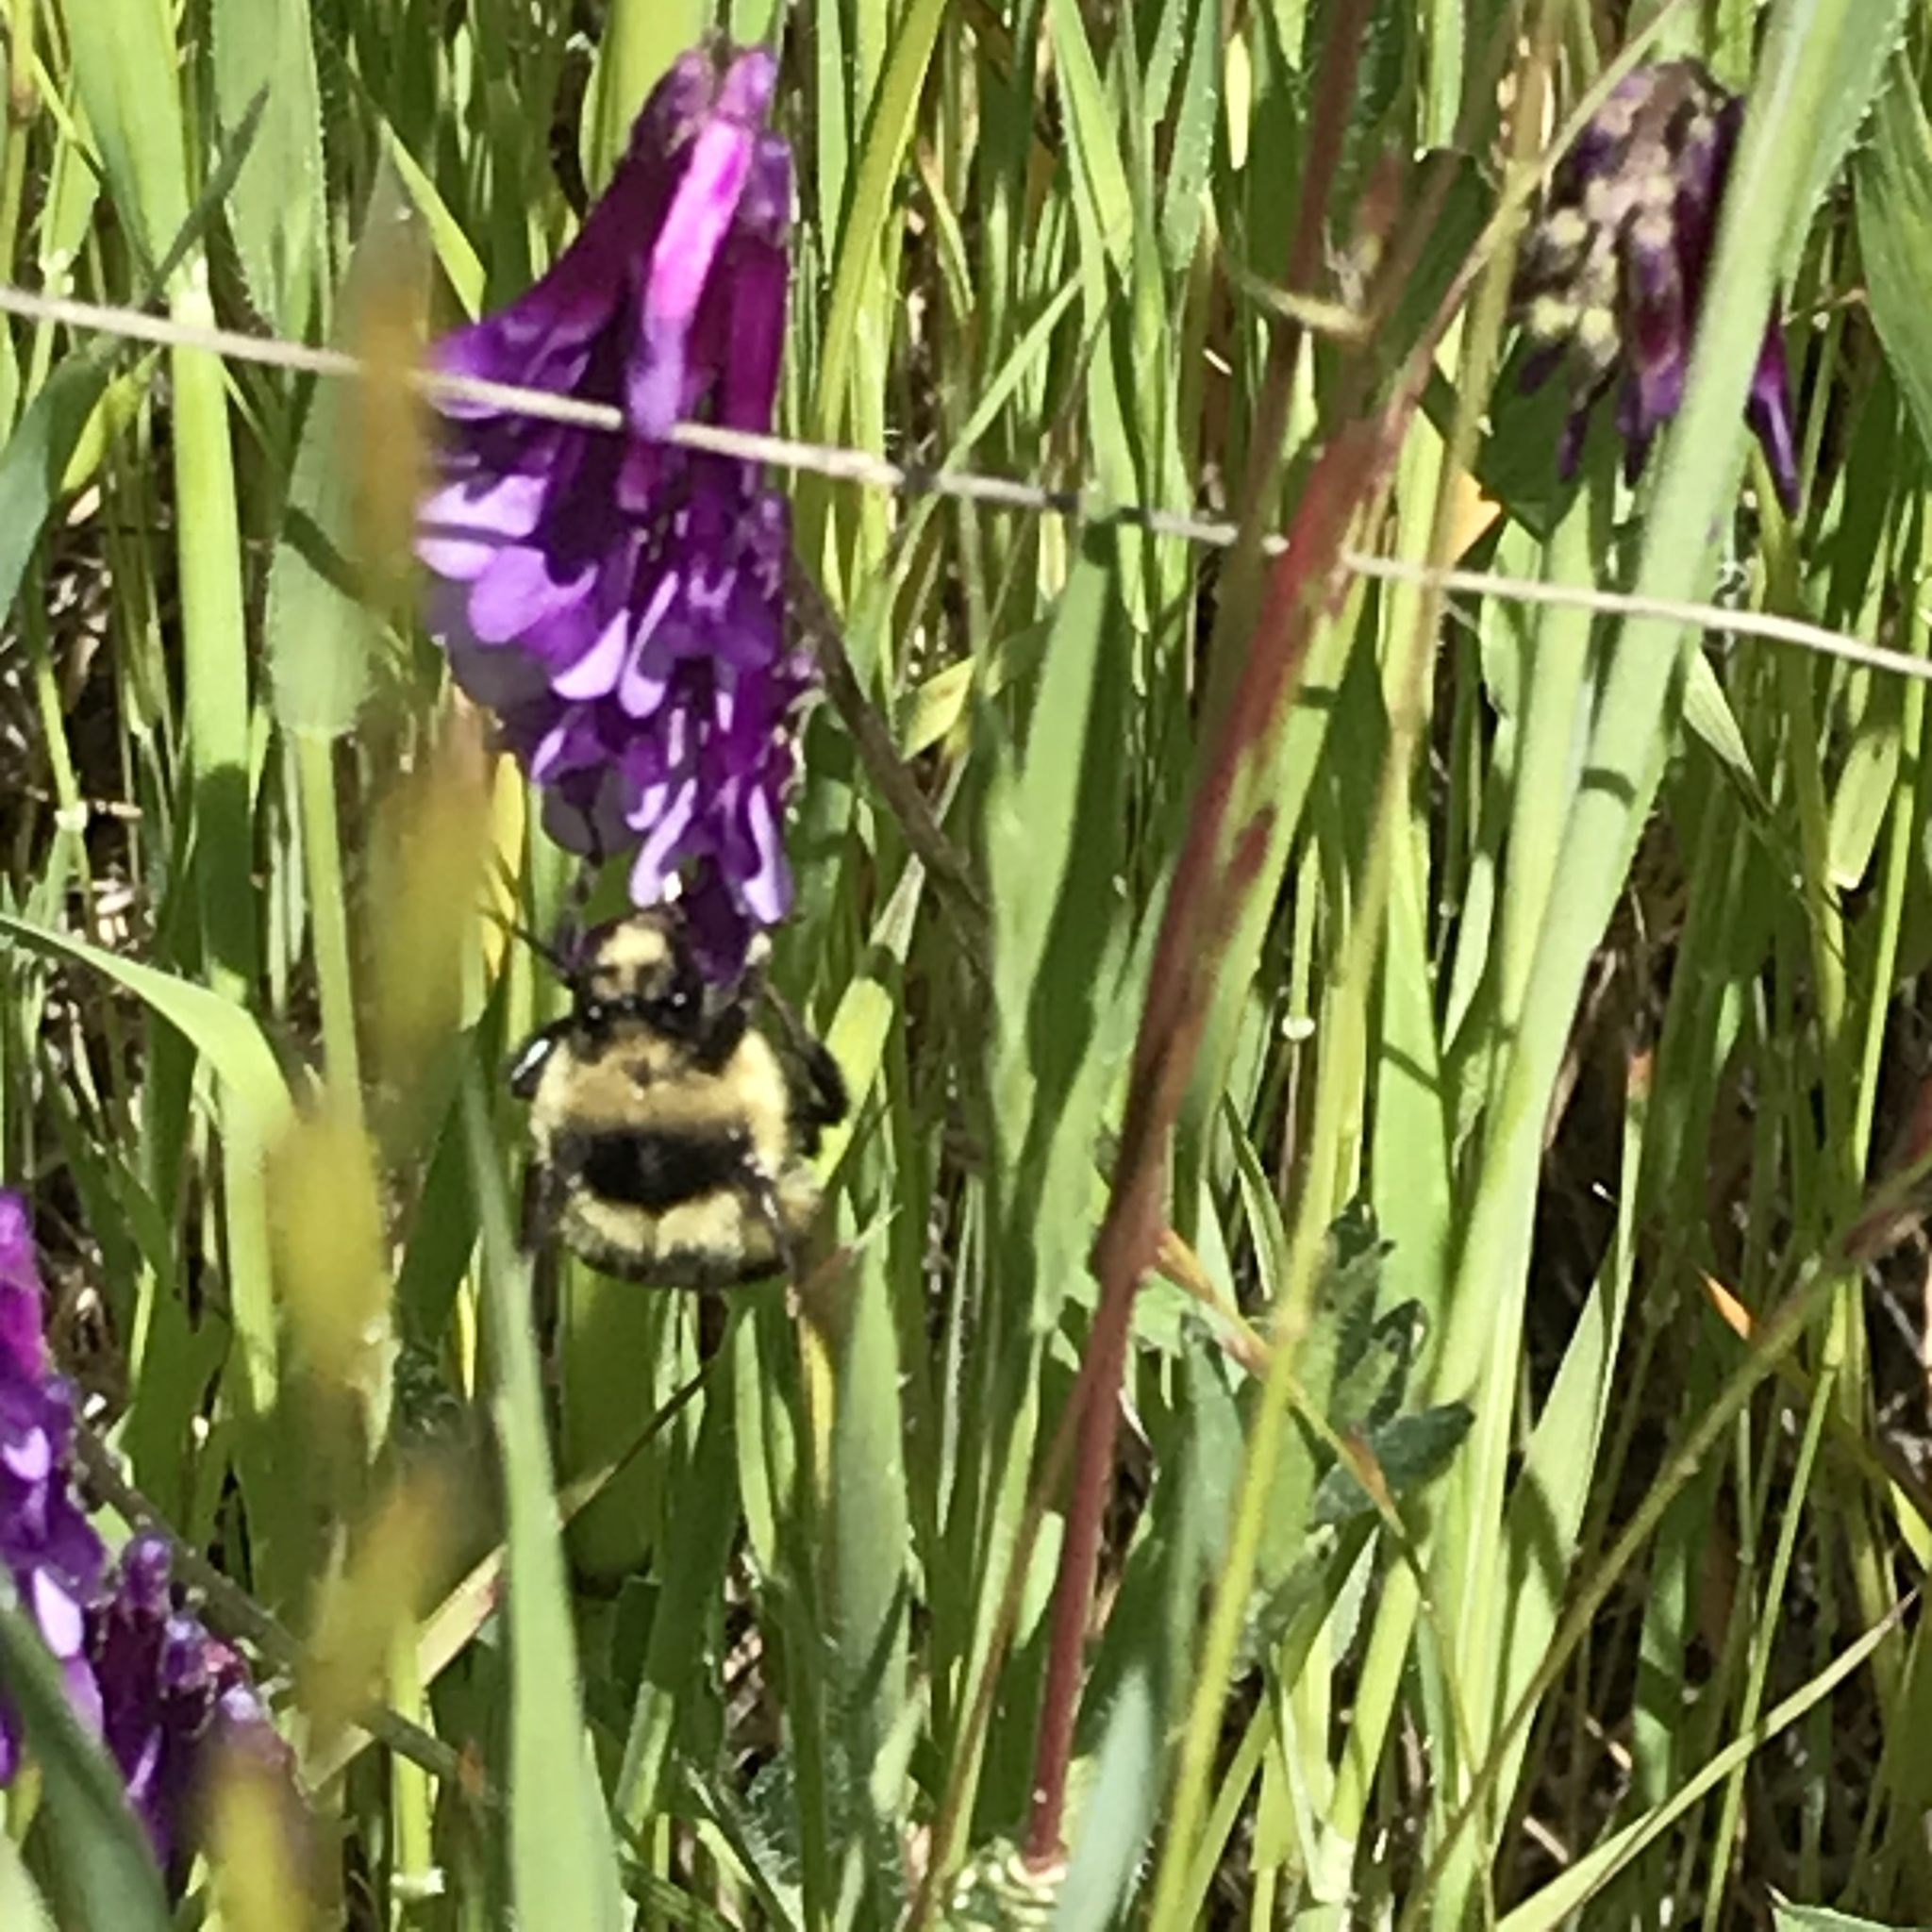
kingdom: Animalia
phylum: Arthropoda
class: Insecta
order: Hymenoptera
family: Apidae
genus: Bombus
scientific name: Bombus melanopygus
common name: Black tail bumble bee
